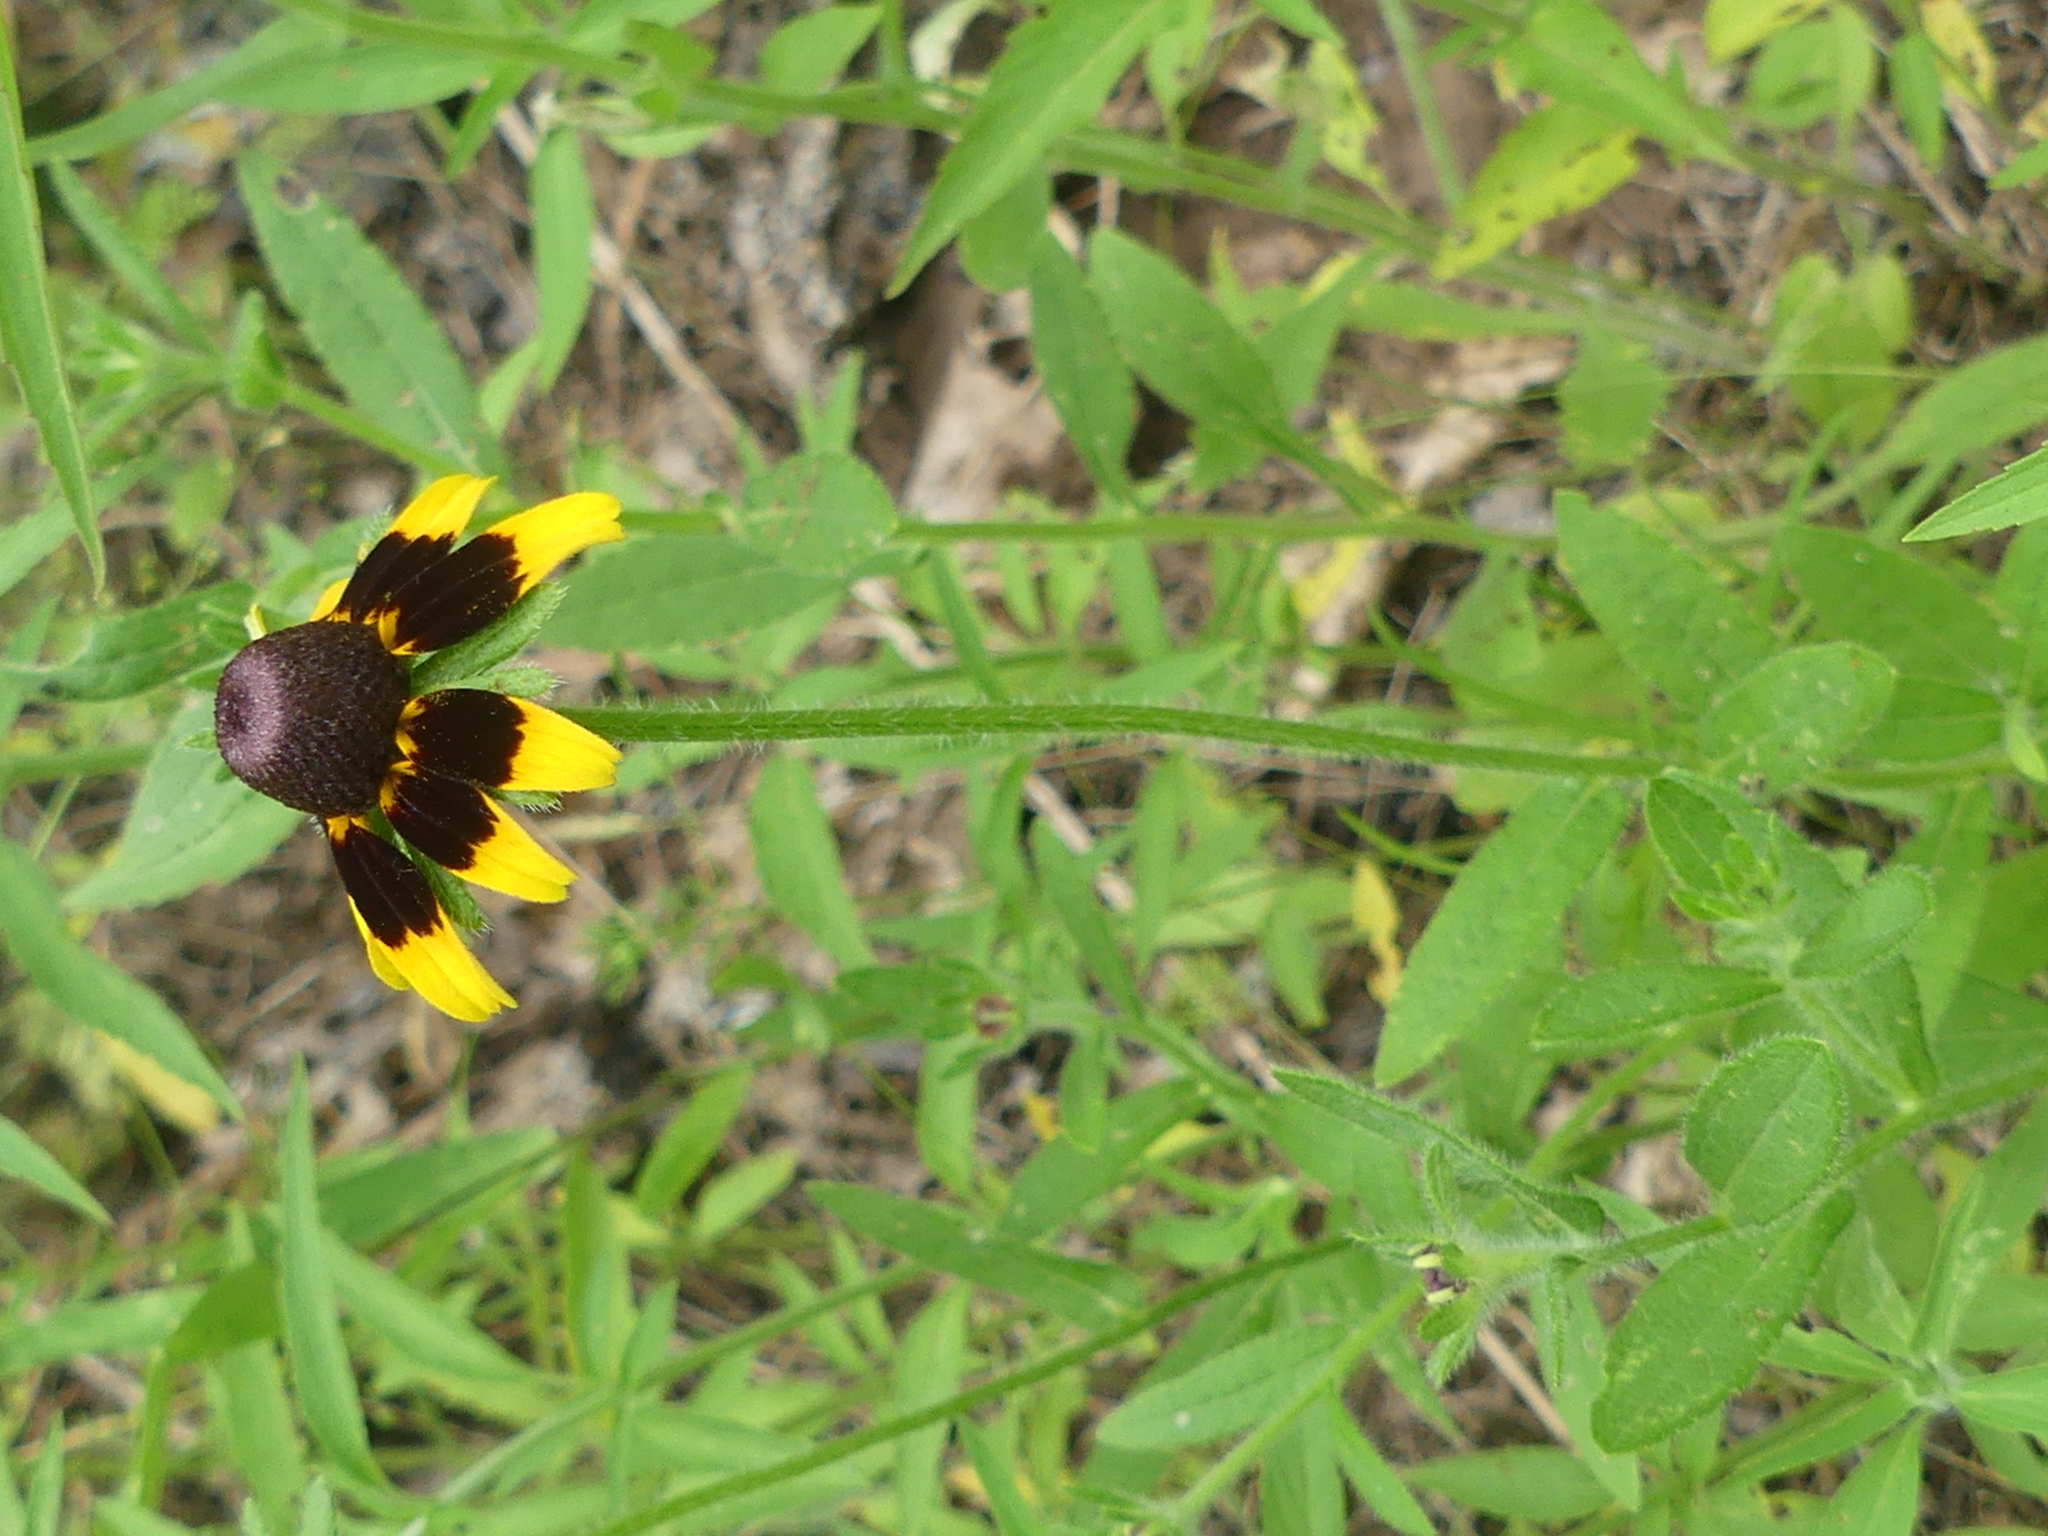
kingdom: Plantae
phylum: Tracheophyta
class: Magnoliopsida
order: Asterales
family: Asteraceae
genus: Rudbeckia
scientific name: Rudbeckia hirta
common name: Black-eyed-susan
